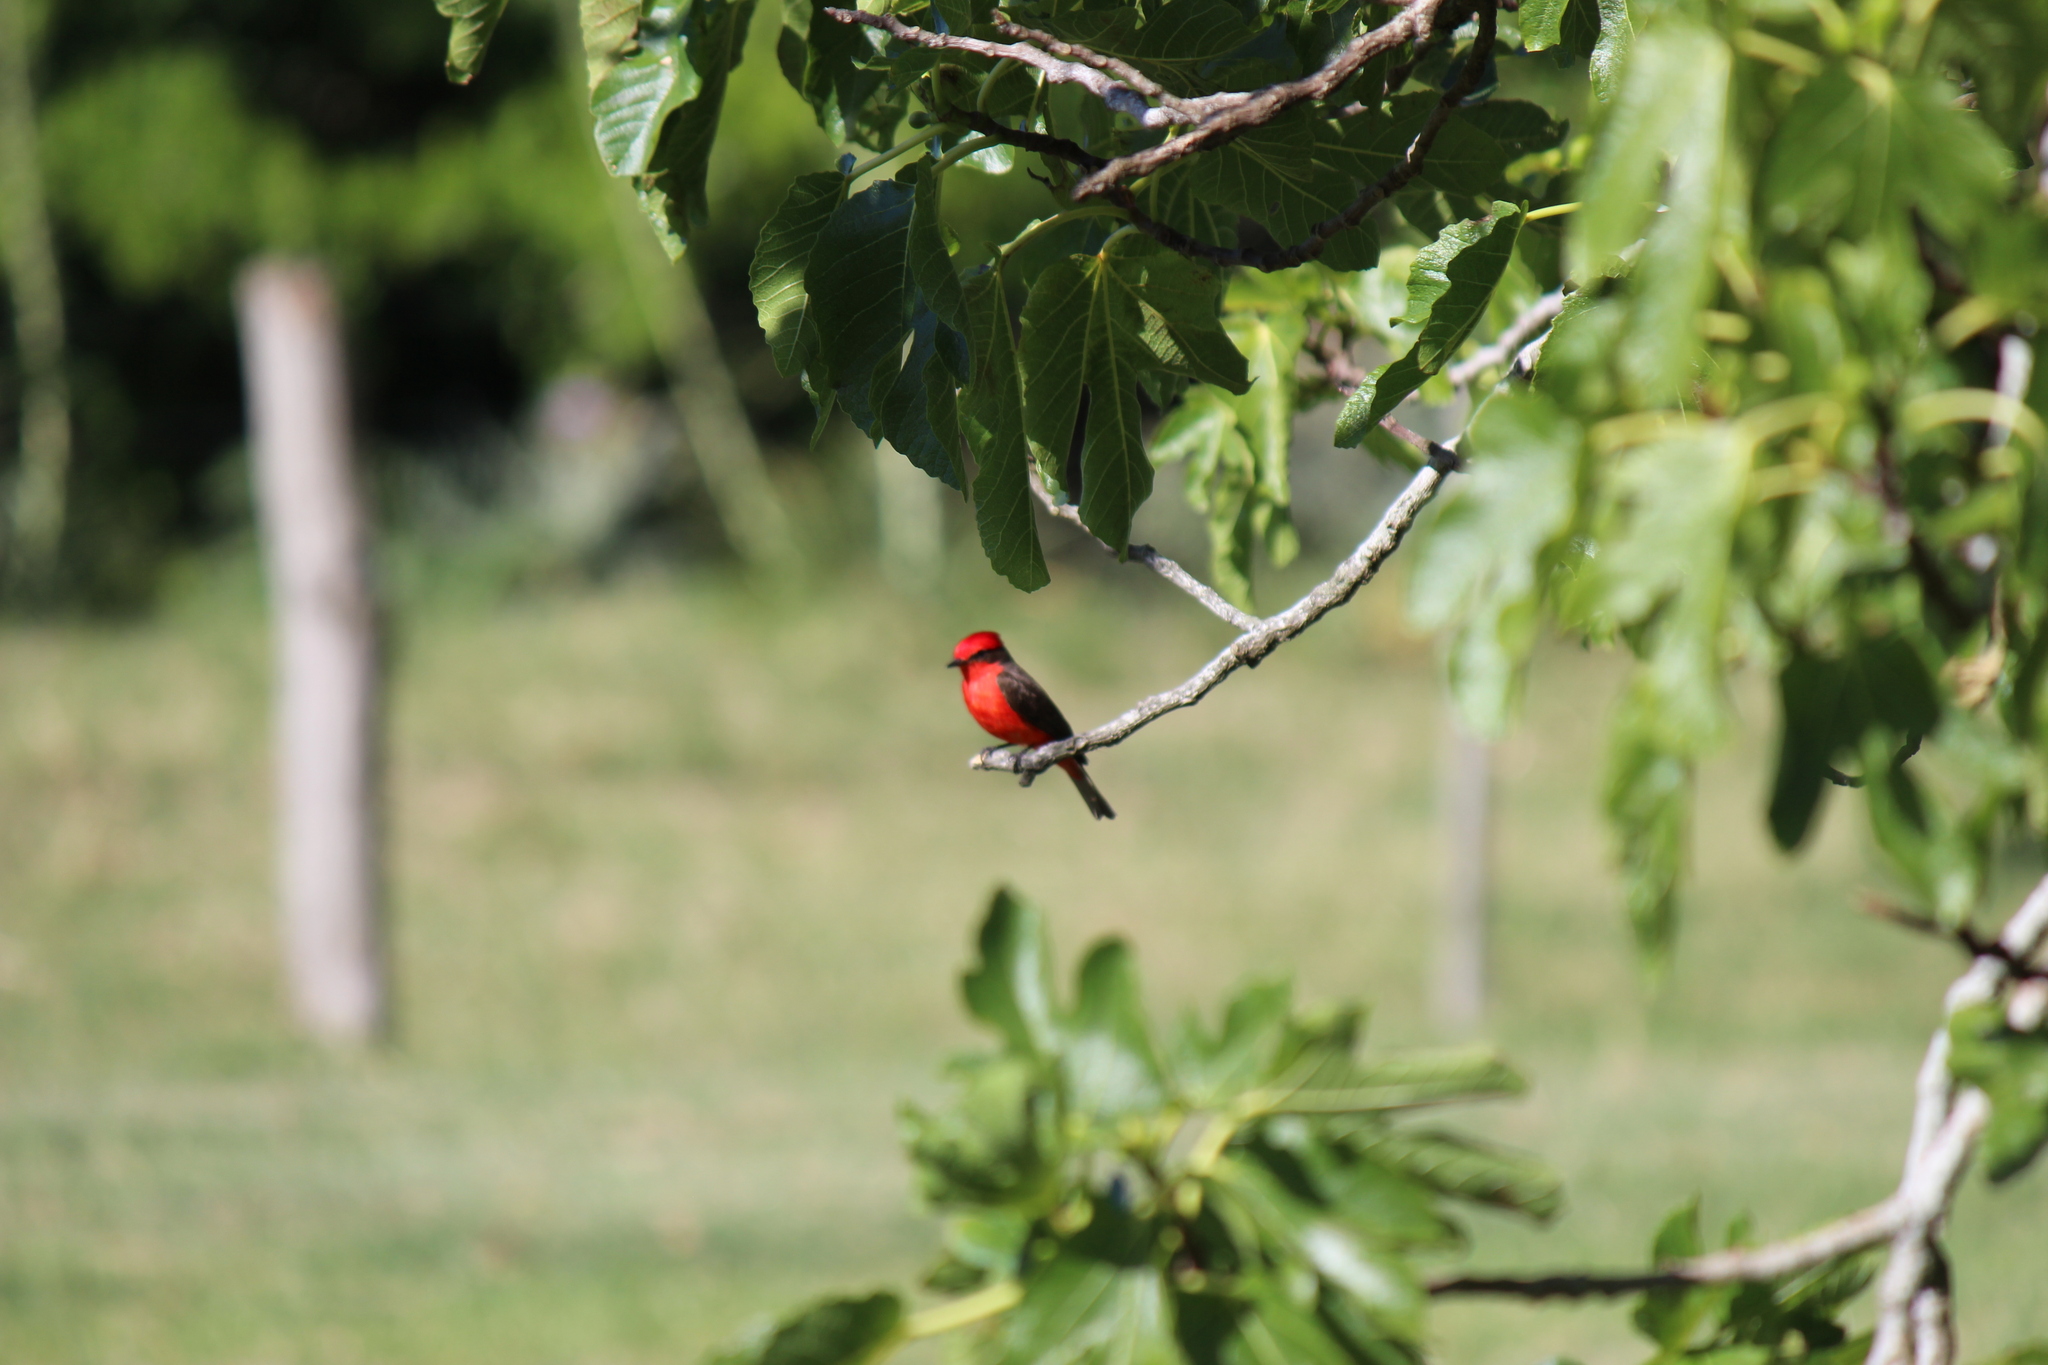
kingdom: Animalia
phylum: Chordata
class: Aves
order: Passeriformes
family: Tyrannidae
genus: Pyrocephalus
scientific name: Pyrocephalus rubinus
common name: Vermilion flycatcher
